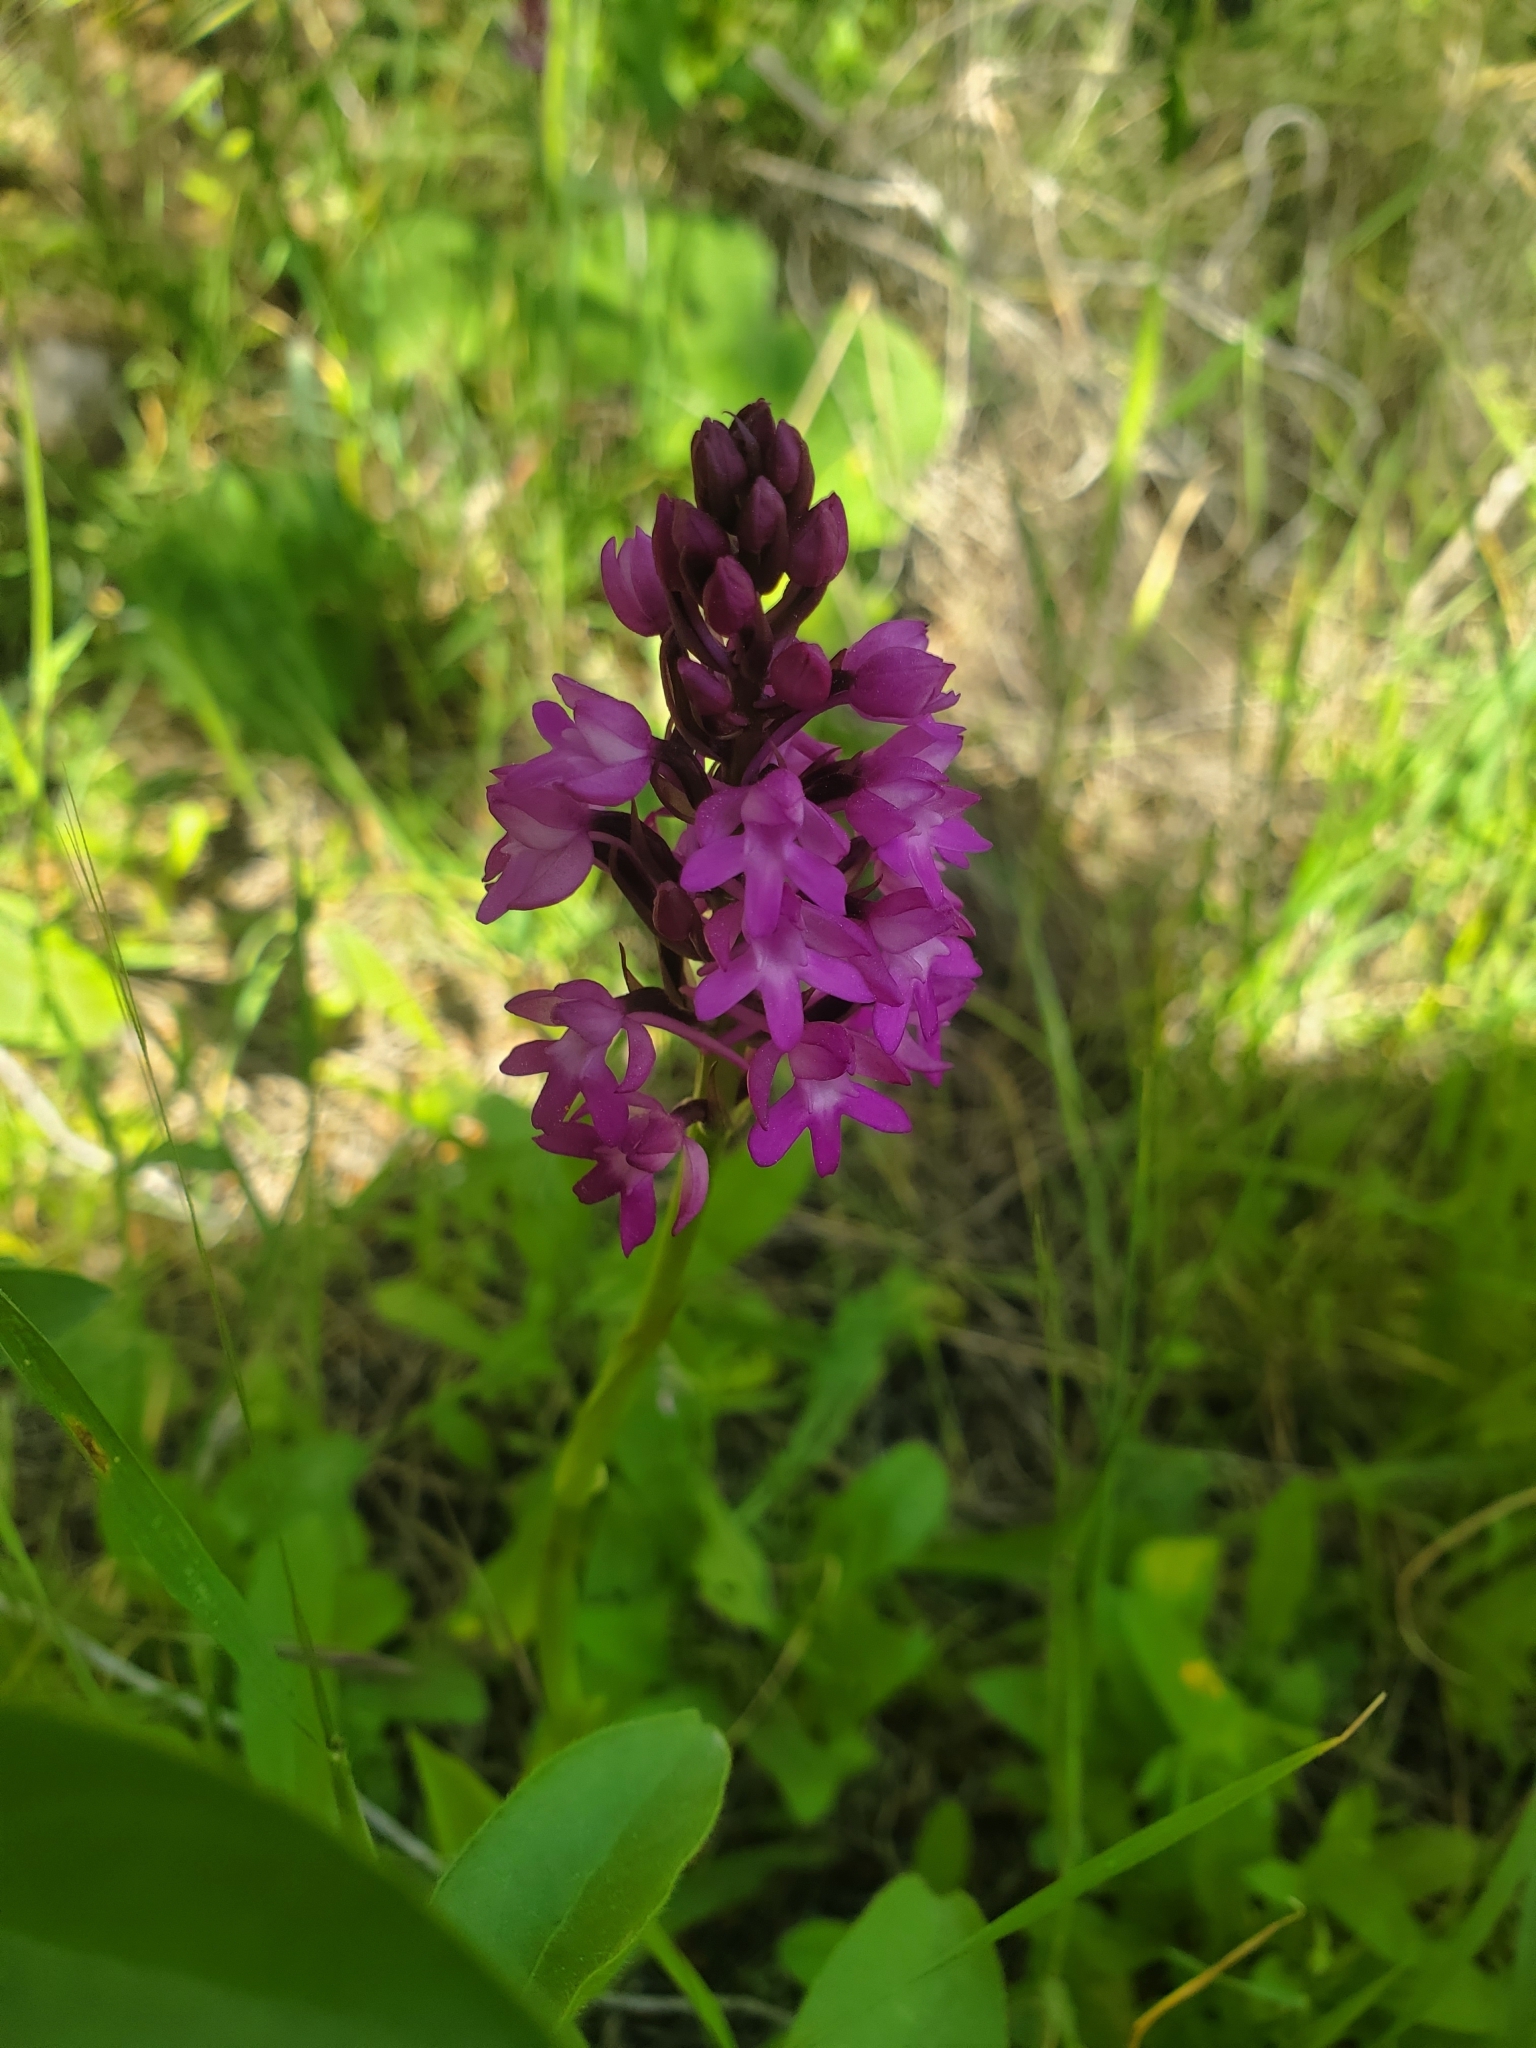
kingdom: Plantae
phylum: Tracheophyta
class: Liliopsida
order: Asparagales
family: Orchidaceae
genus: Anacamptis
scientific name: Anacamptis pyramidalis
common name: Pyramidal orchid
